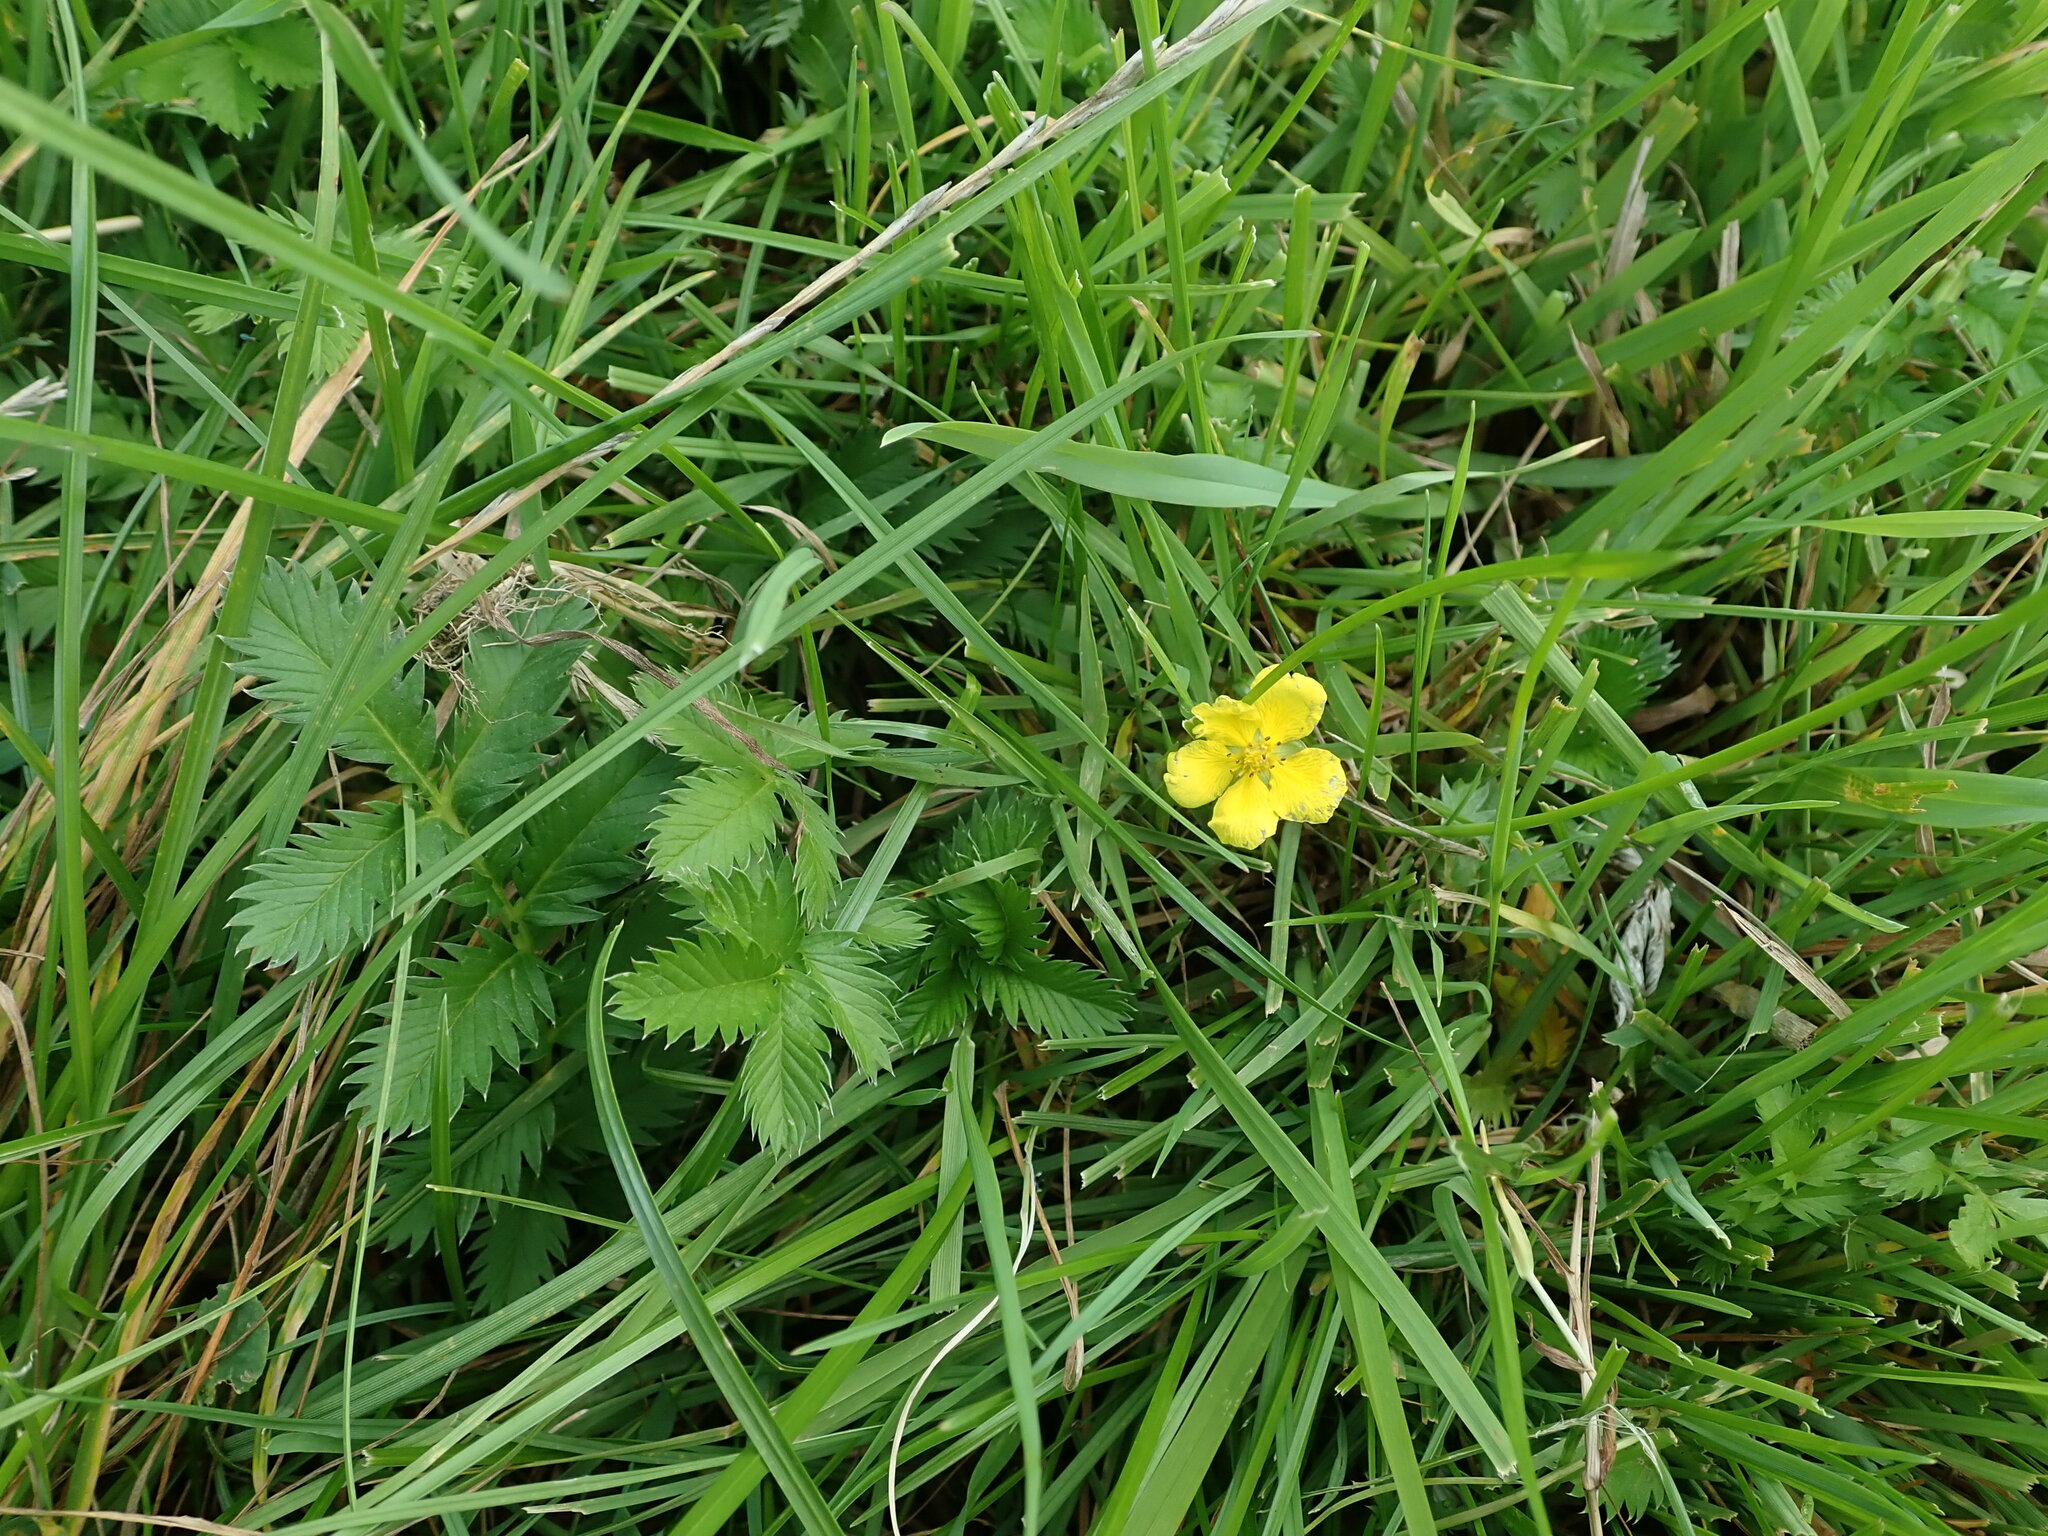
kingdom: Plantae
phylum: Tracheophyta
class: Magnoliopsida
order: Rosales
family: Rosaceae
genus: Argentina
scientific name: Argentina anserina
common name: Common silverweed
